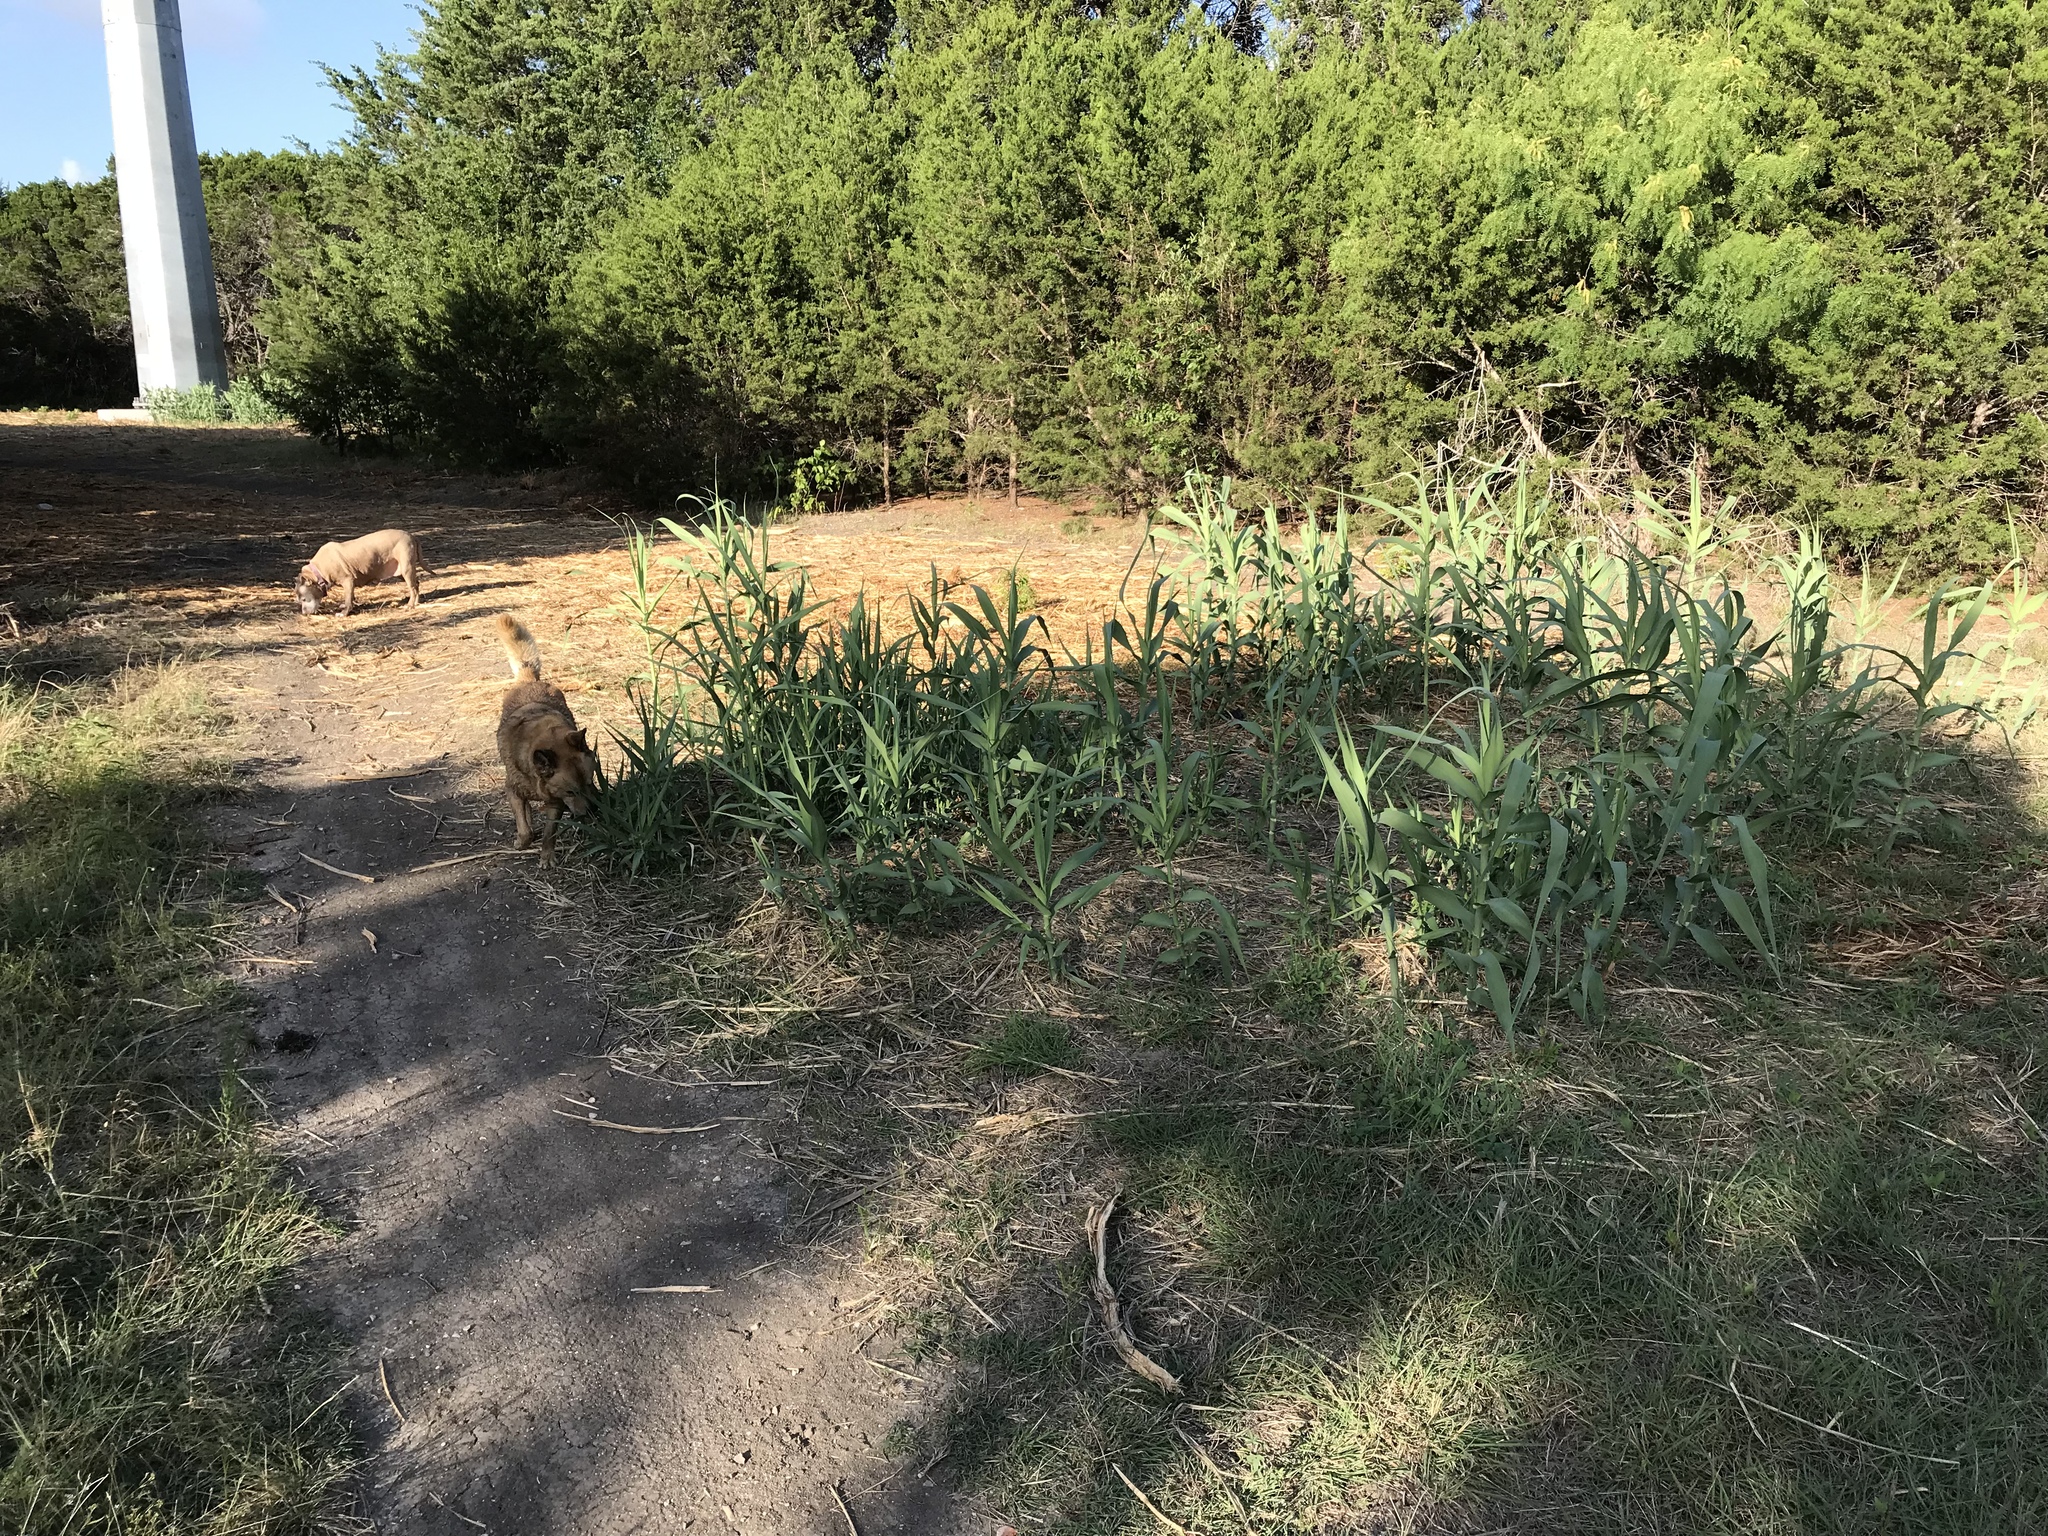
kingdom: Plantae
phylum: Tracheophyta
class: Liliopsida
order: Poales
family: Poaceae
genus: Arundo
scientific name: Arundo donax
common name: Giant reed
